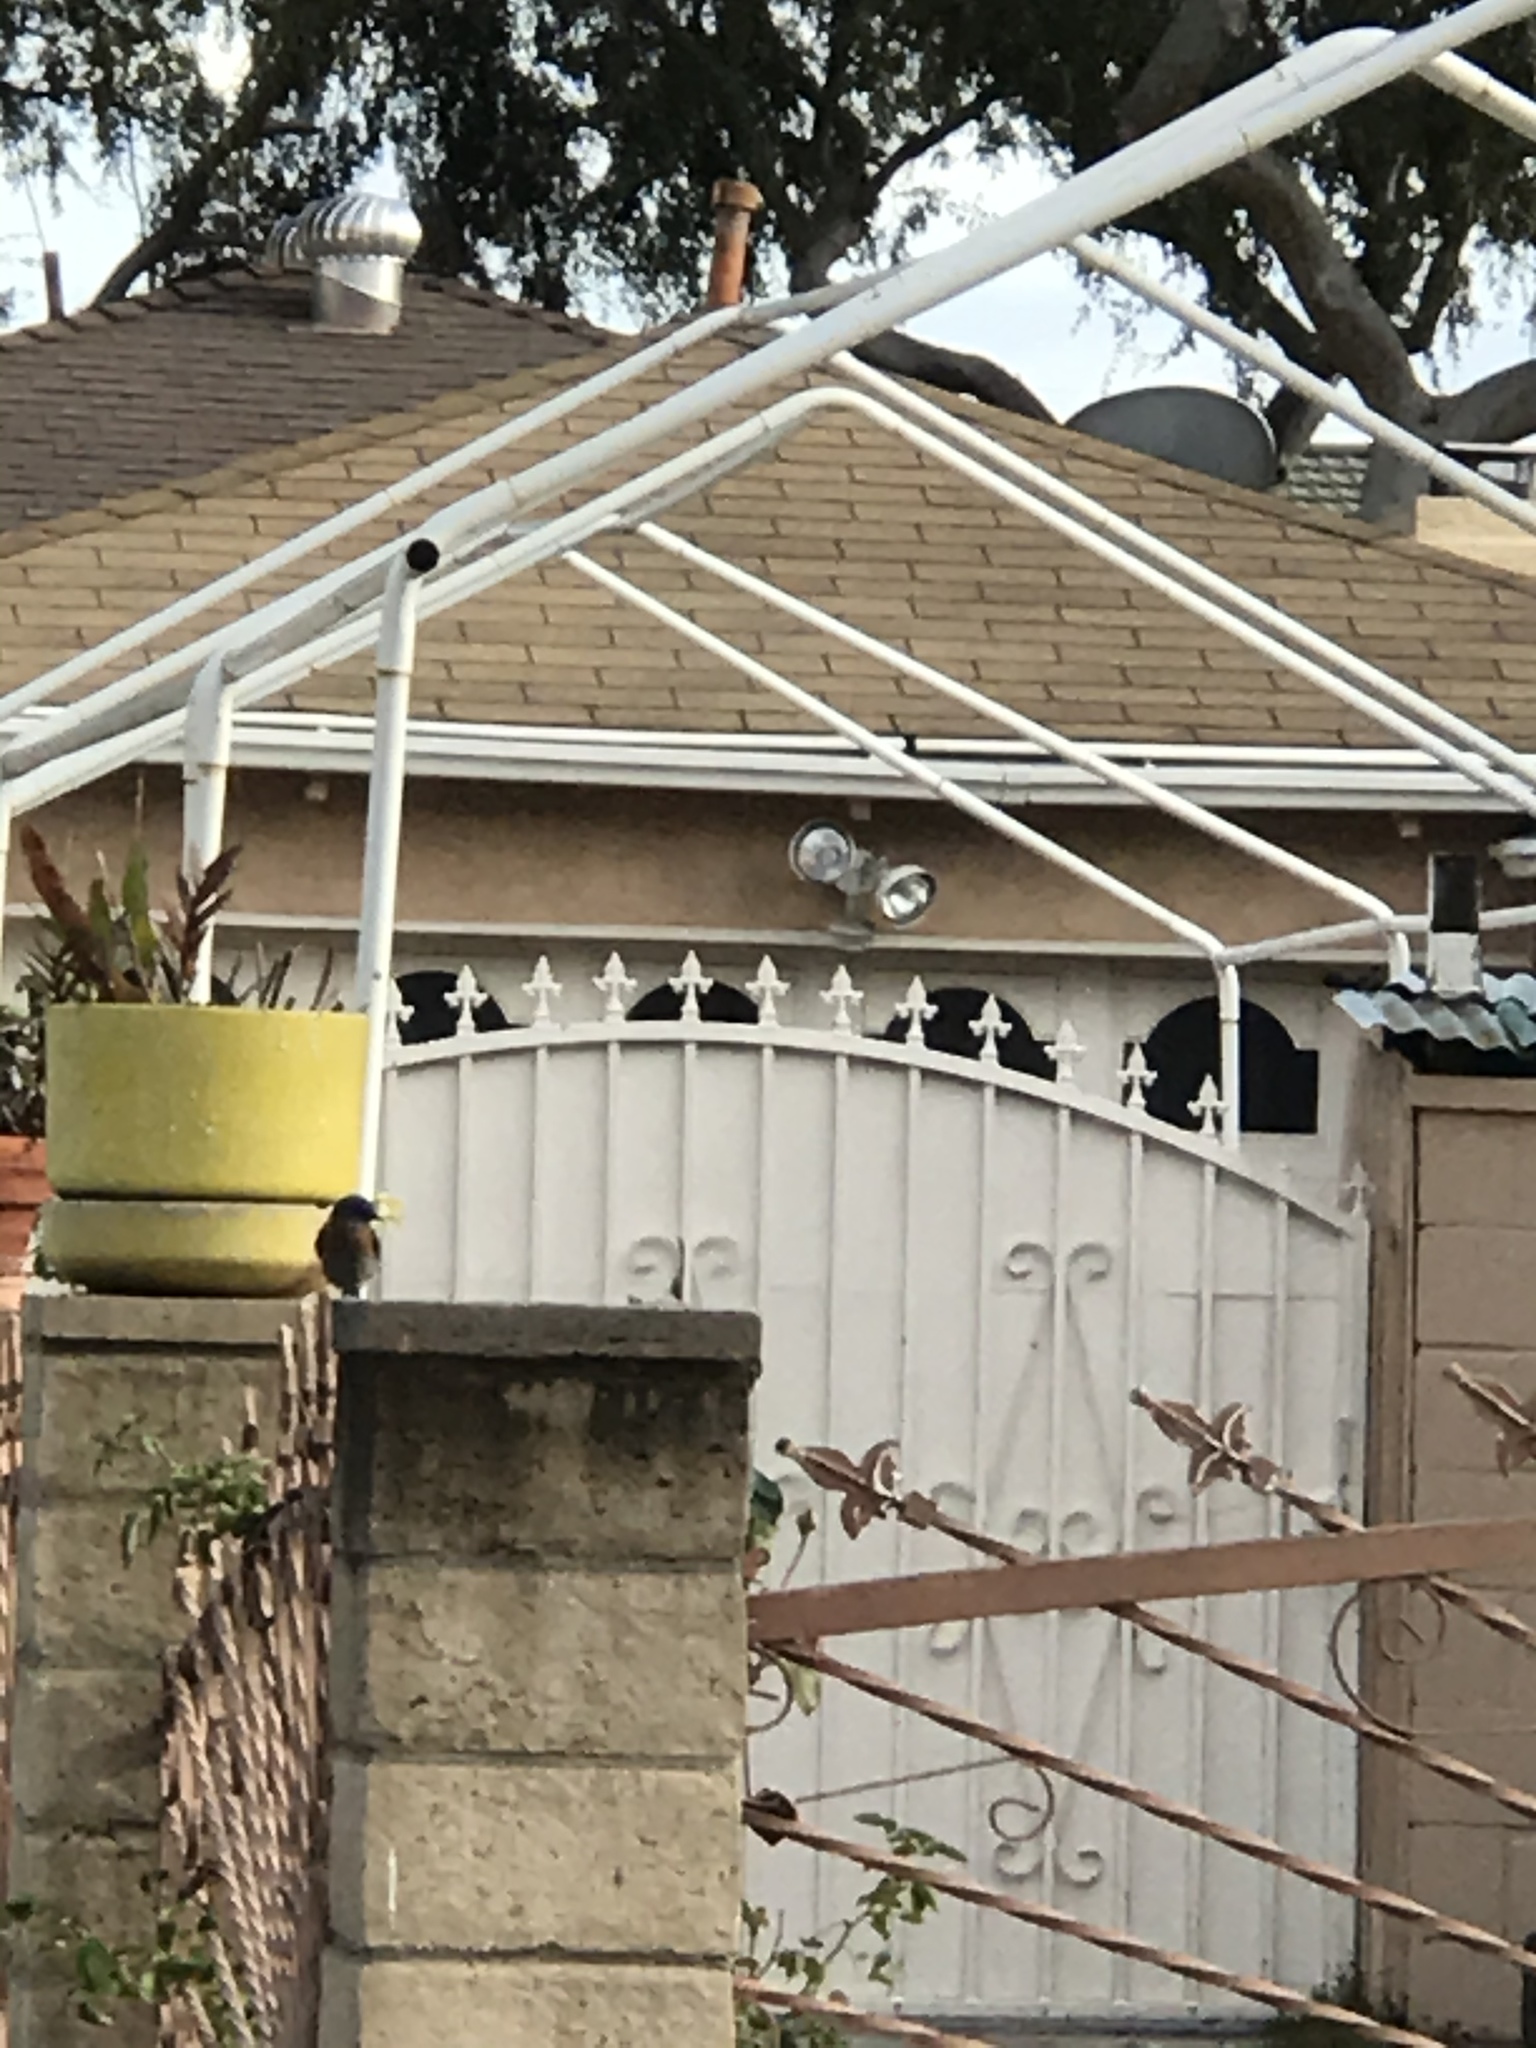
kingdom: Animalia
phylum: Chordata
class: Aves
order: Passeriformes
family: Turdidae
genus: Sialia
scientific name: Sialia mexicana
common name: Western bluebird
